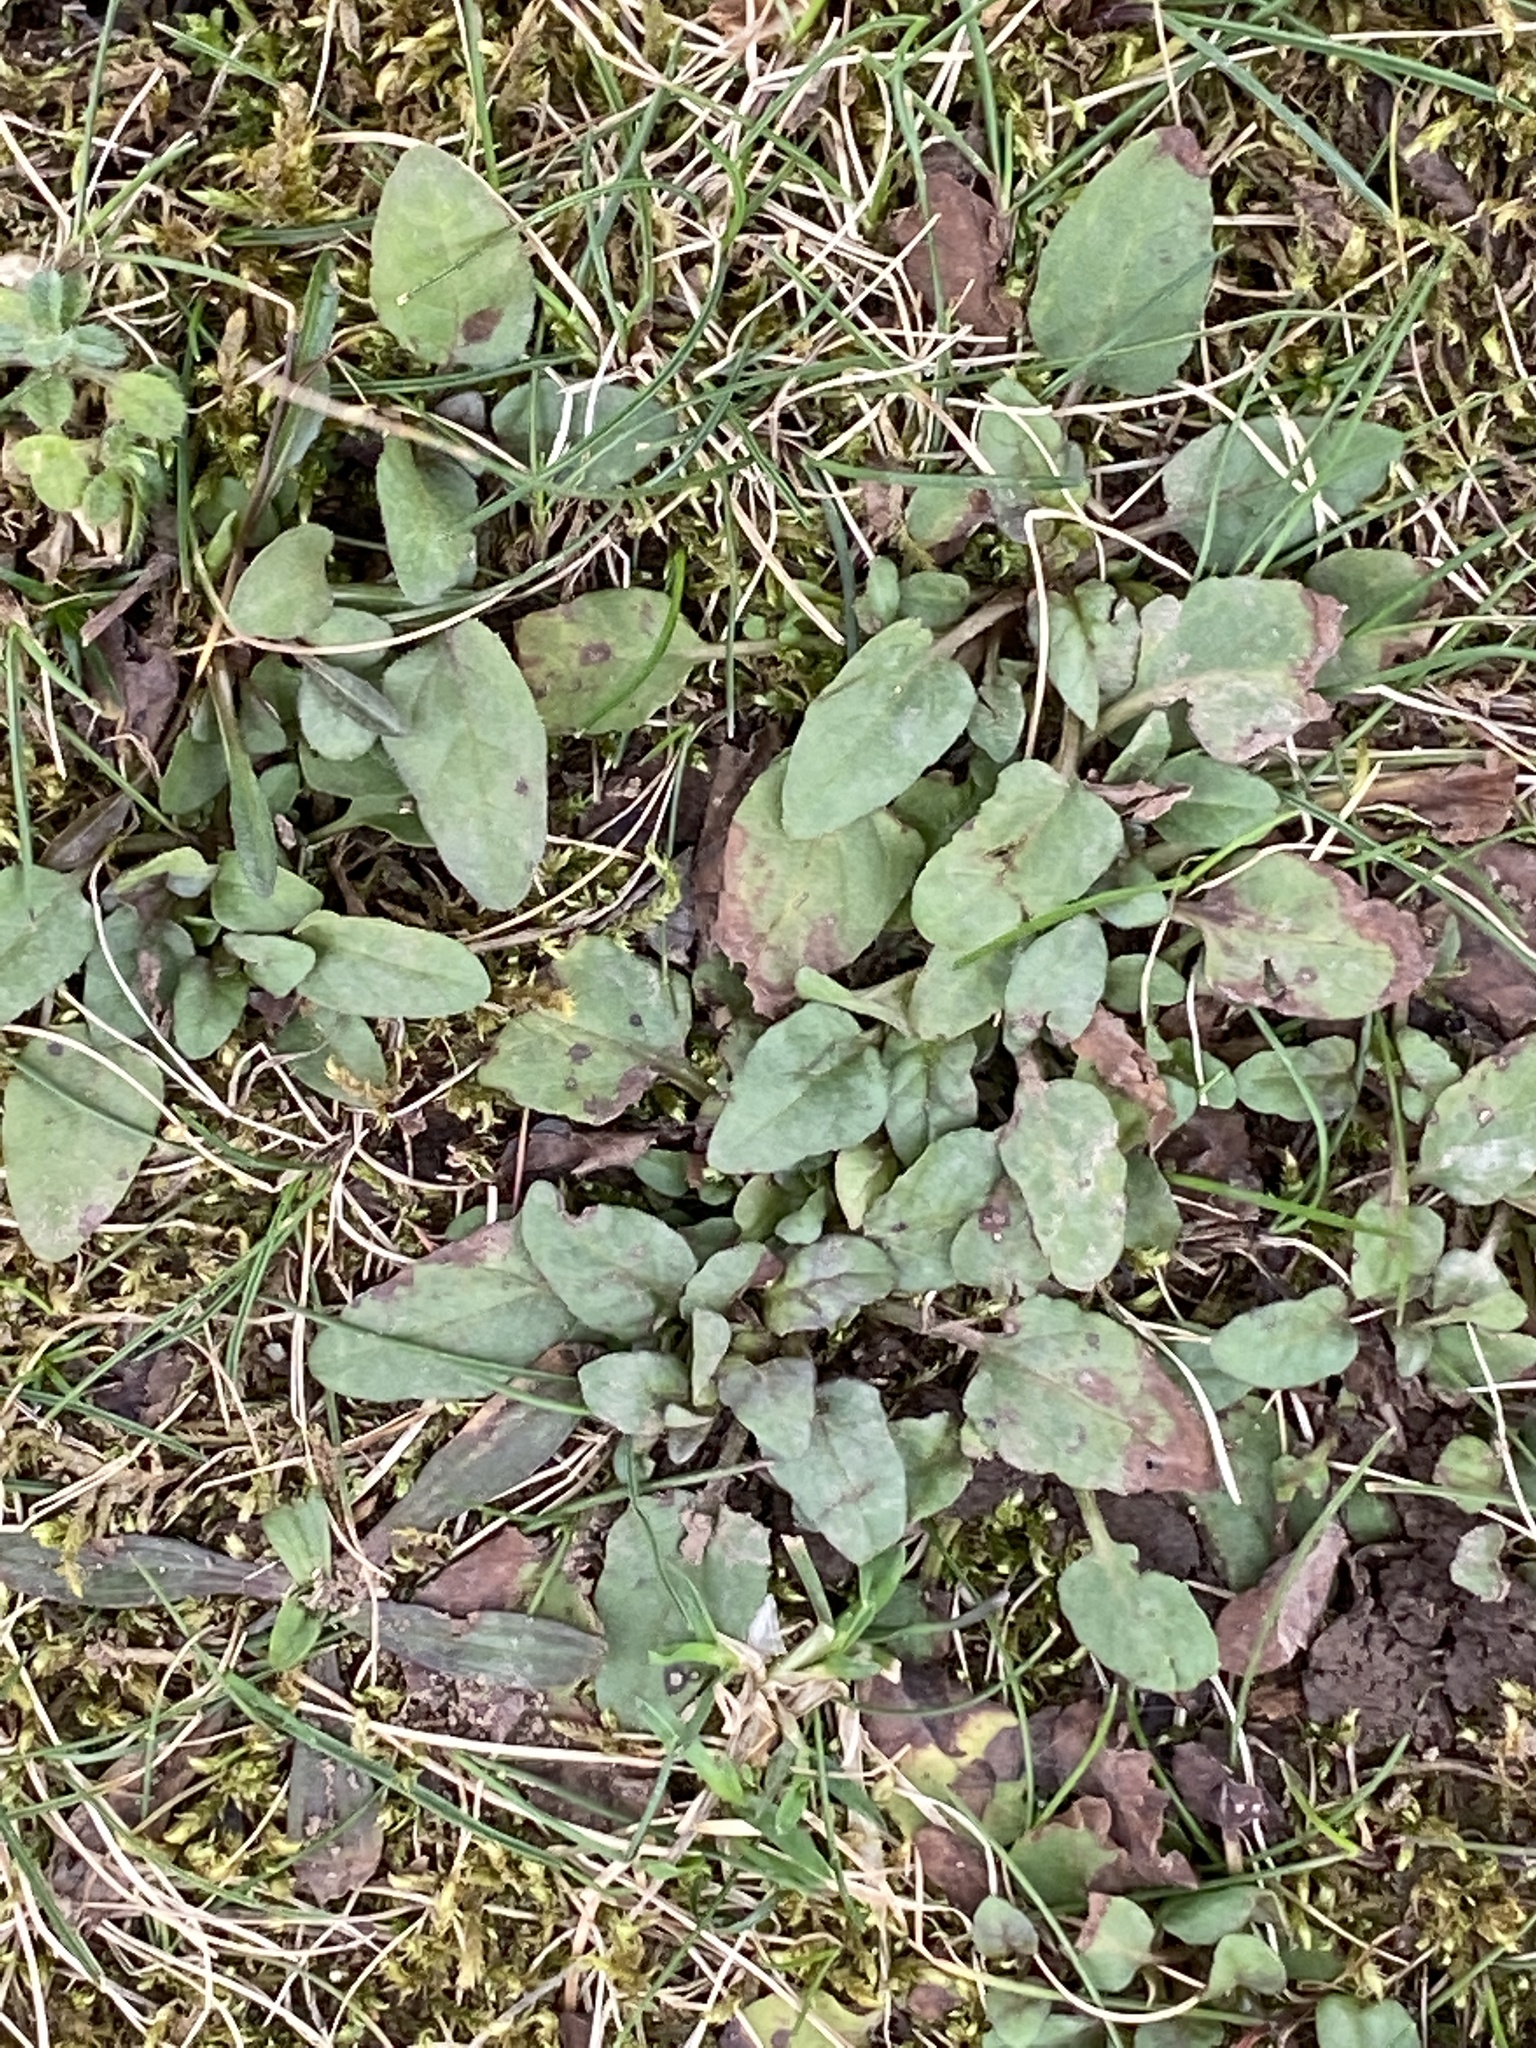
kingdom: Plantae
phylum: Tracheophyta
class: Magnoliopsida
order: Lamiales
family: Lamiaceae
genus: Prunella
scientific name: Prunella vulgaris
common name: Heal-all
